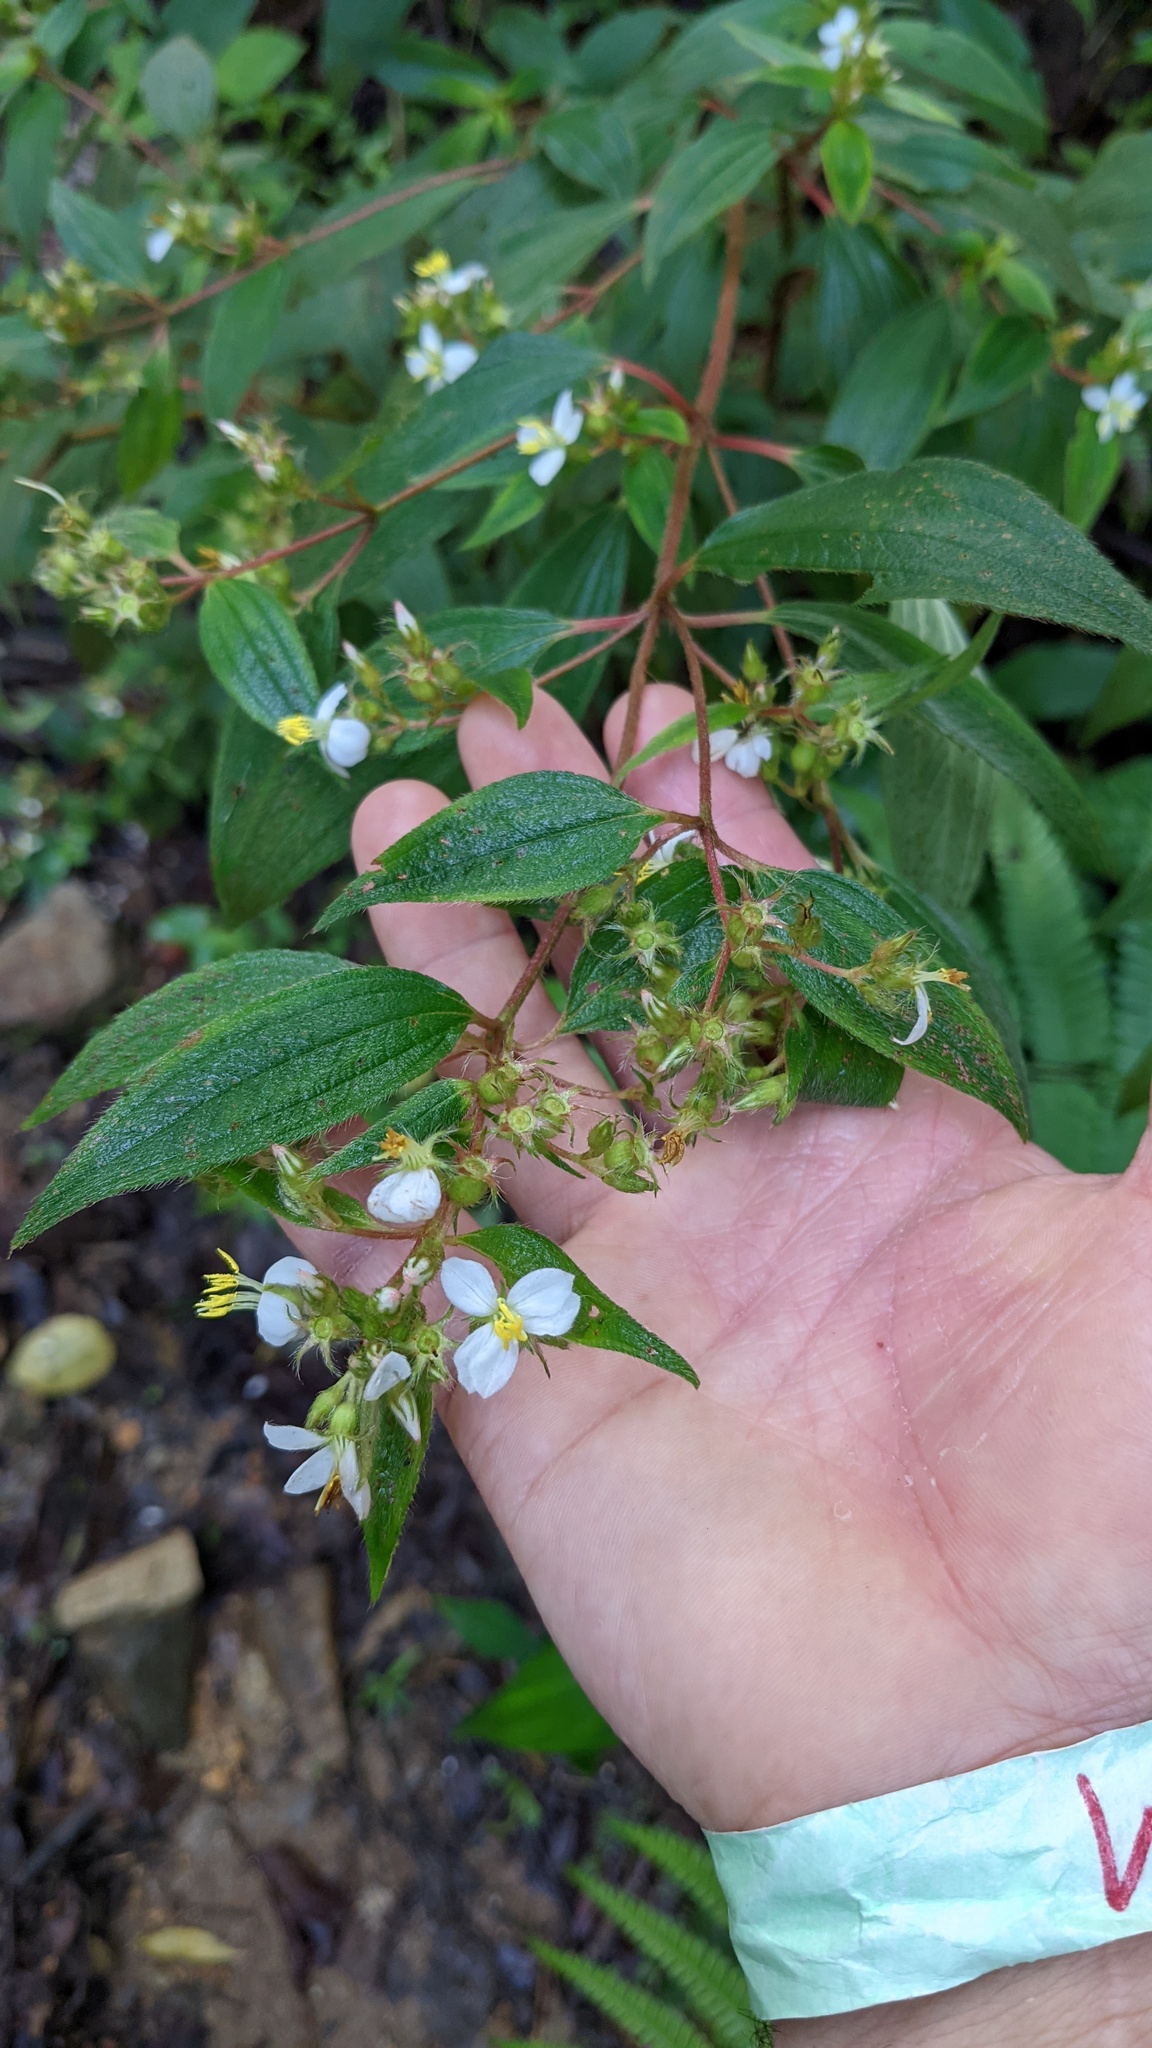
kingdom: Plantae
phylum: Tracheophyta
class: Magnoliopsida
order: Myrtales
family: Melastomataceae
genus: Chaetogastra
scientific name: Chaetogastra longifolia
